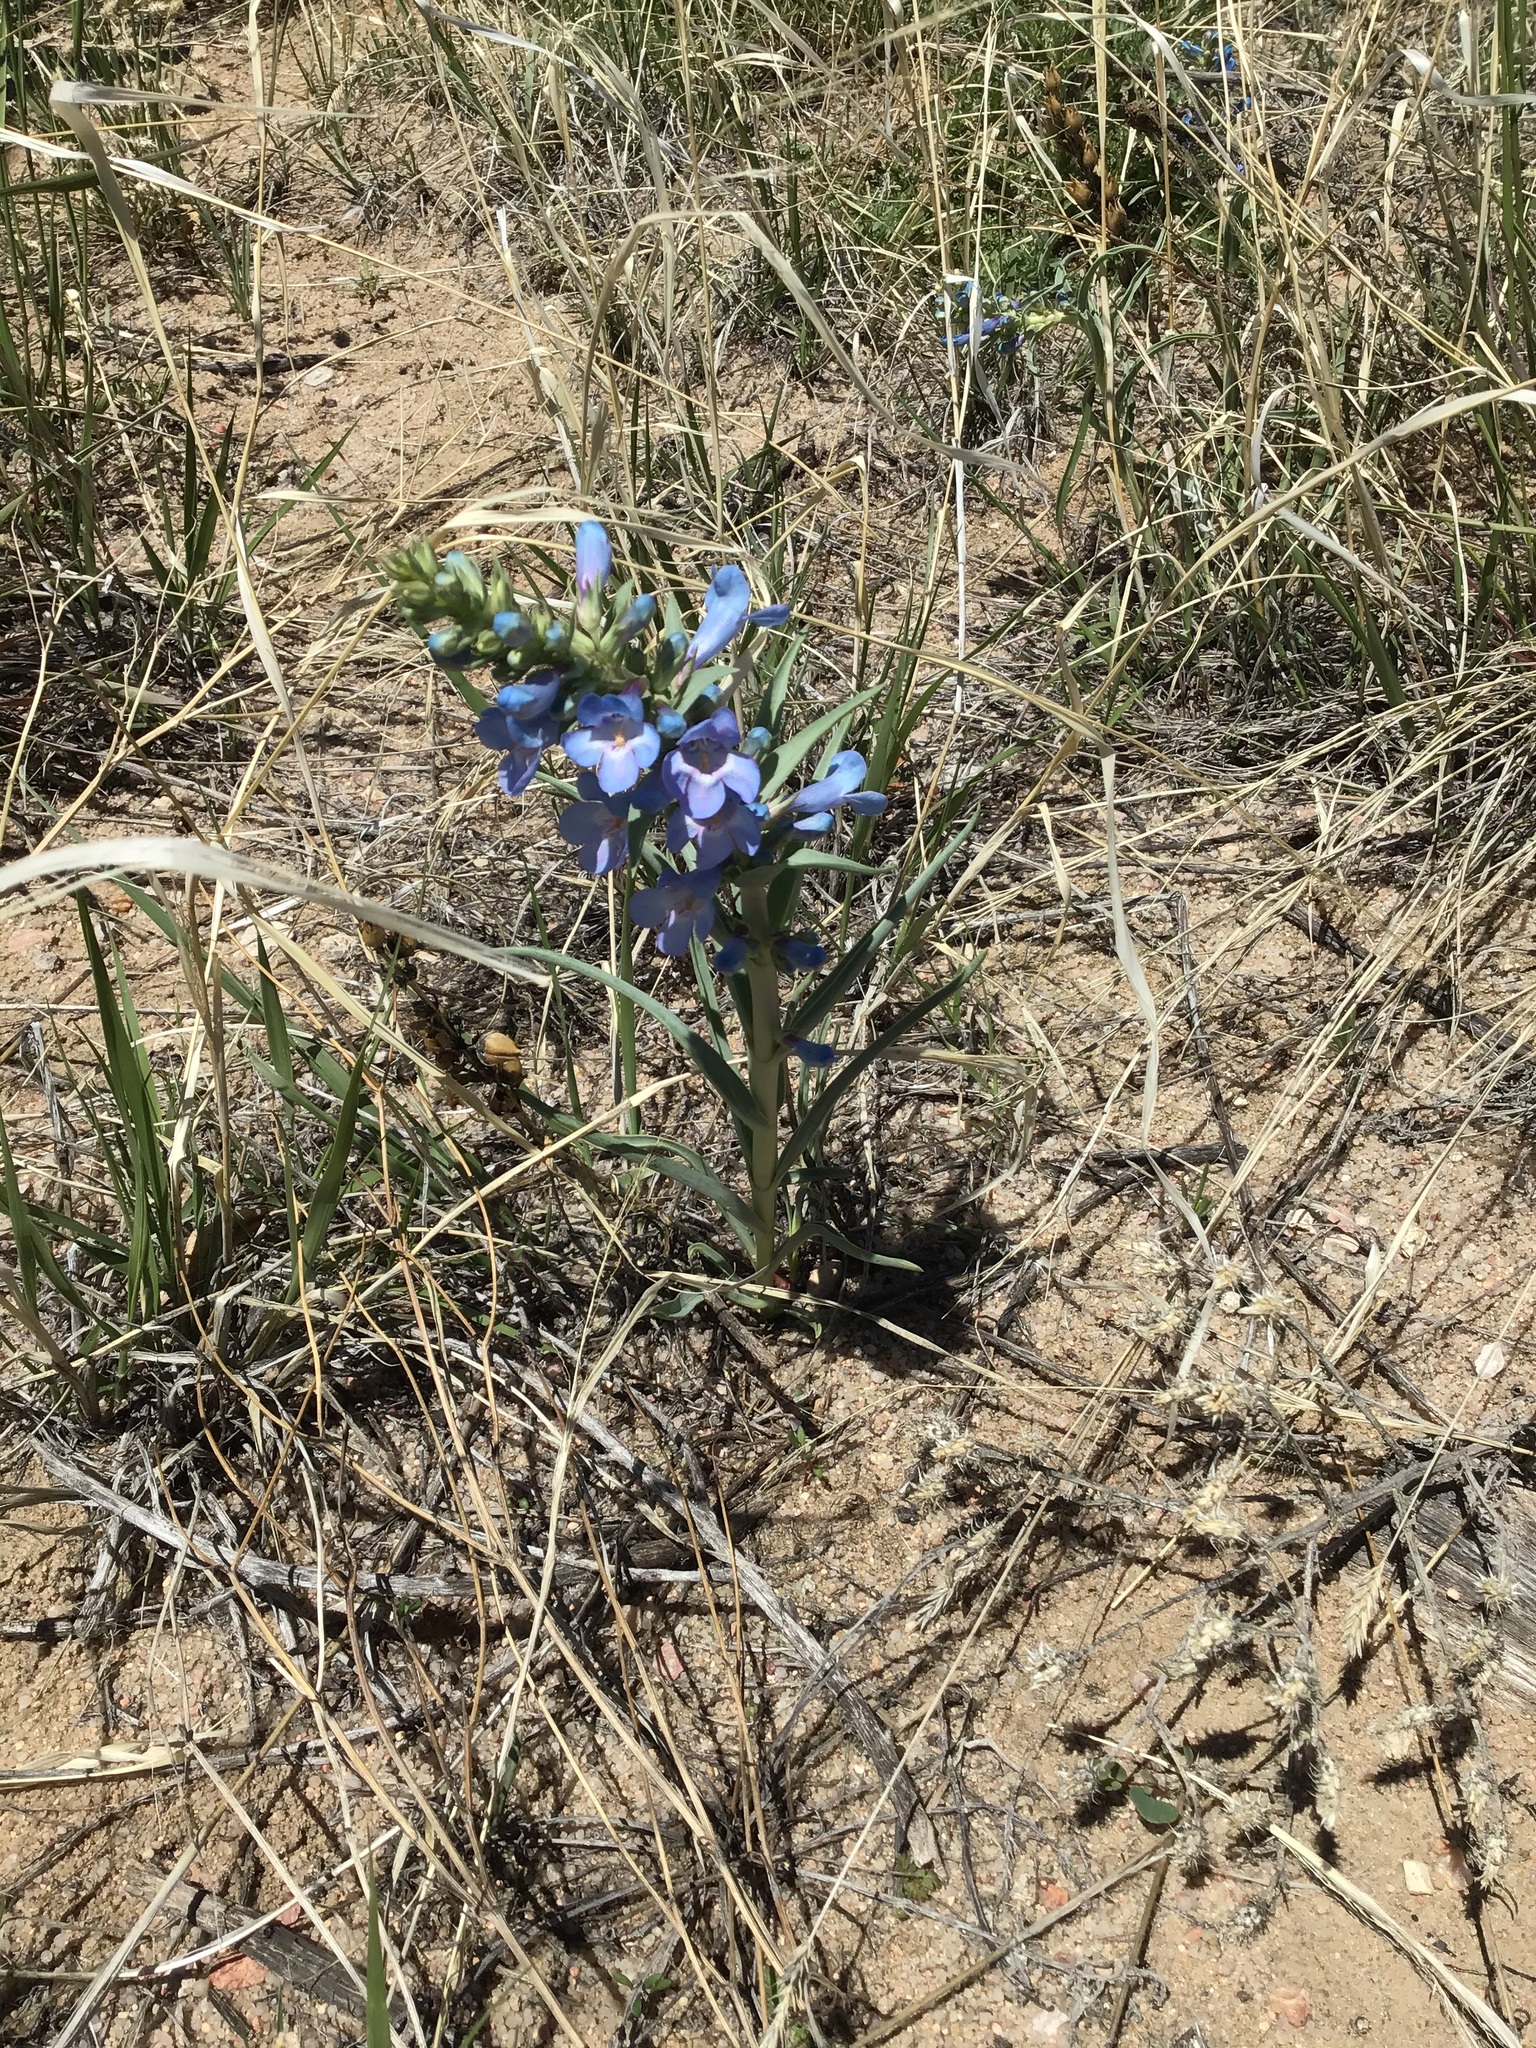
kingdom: Plantae
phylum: Tracheophyta
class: Magnoliopsida
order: Lamiales
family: Plantaginaceae
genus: Penstemon
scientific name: Penstemon angustifolius
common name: Narrow beardtongue
